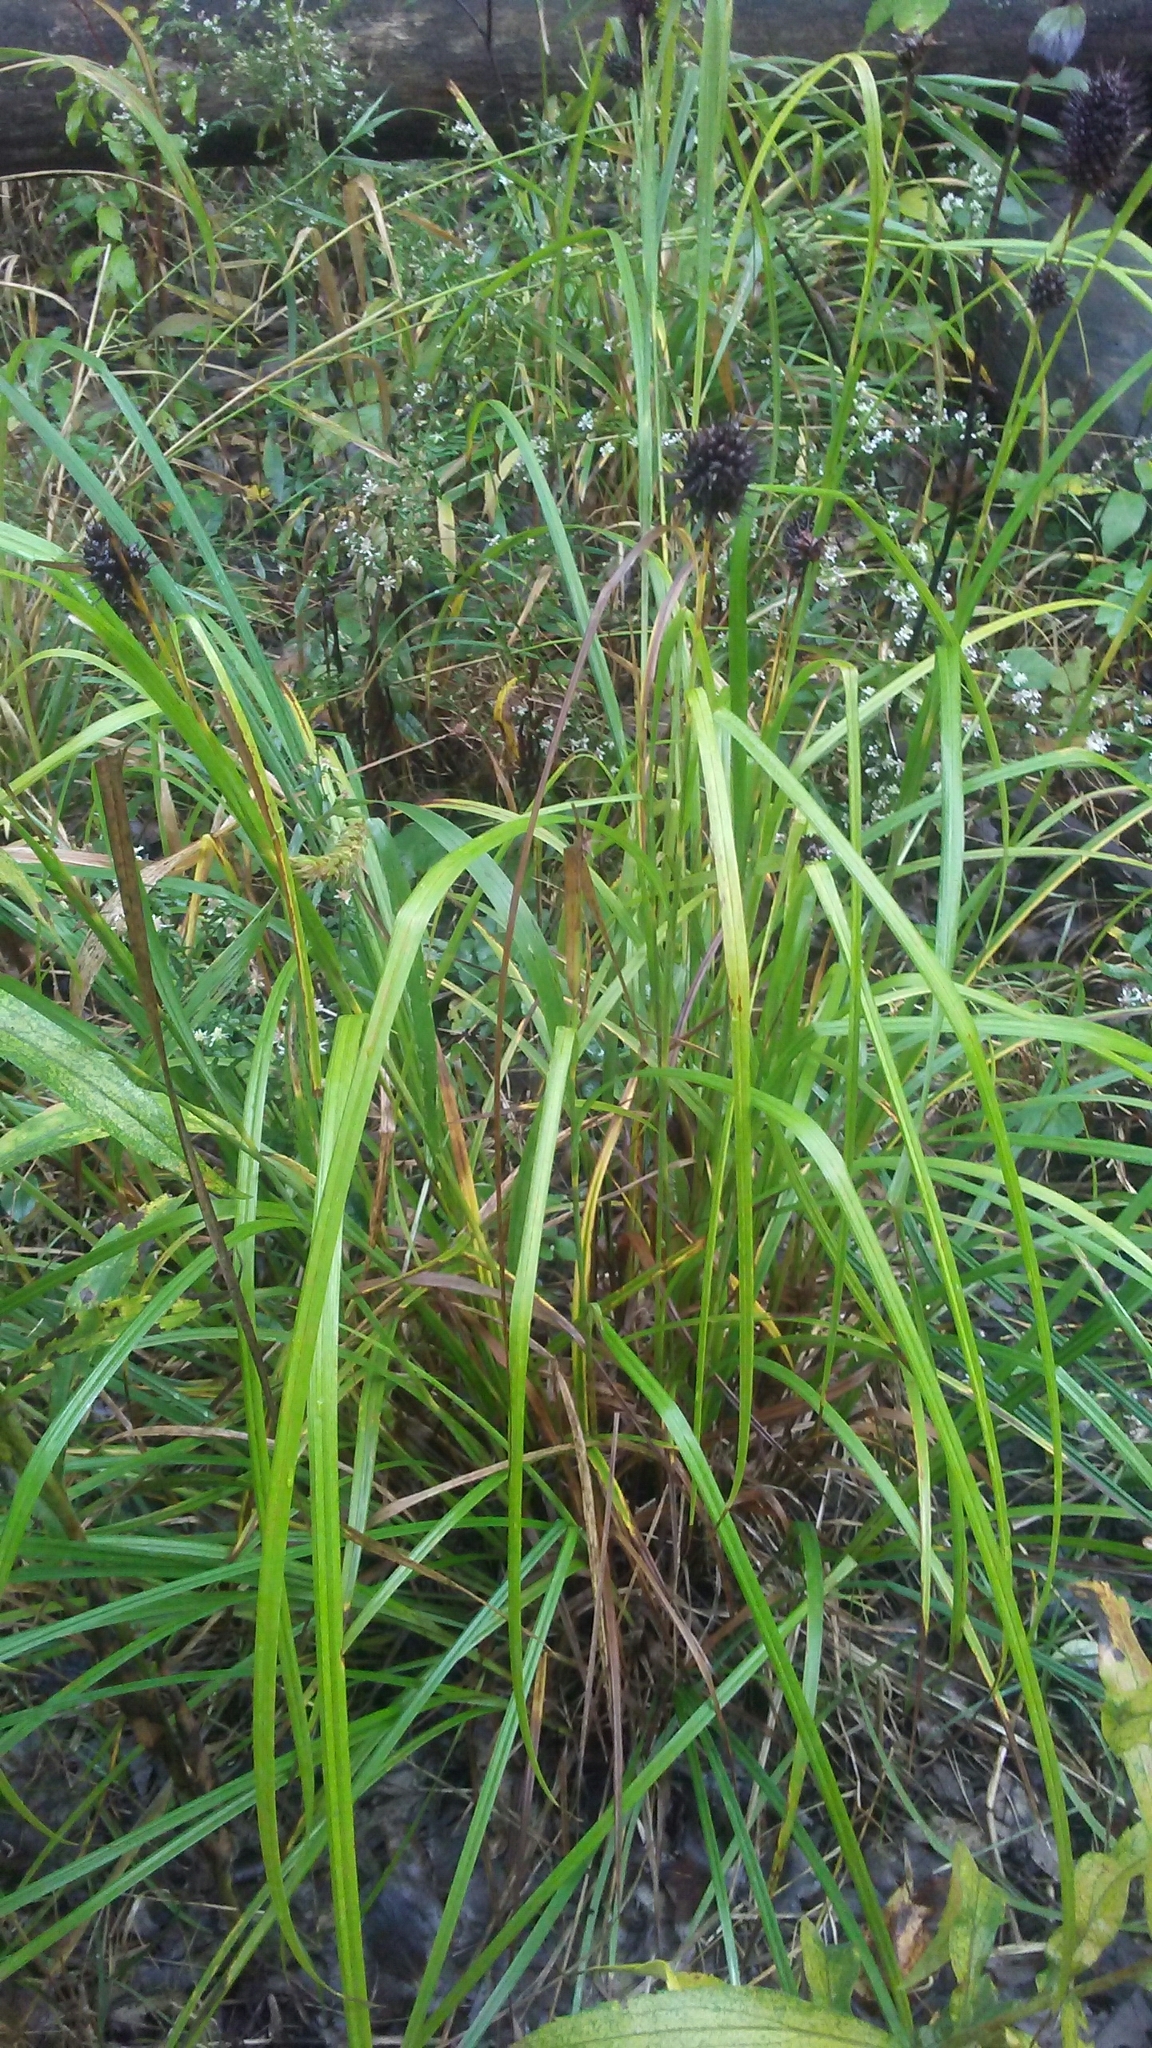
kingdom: Plantae
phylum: Tracheophyta
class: Liliopsida
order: Poales
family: Cyperaceae
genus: Carex
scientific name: Carex squarrosa
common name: Narrow-leaved cattail sedge
